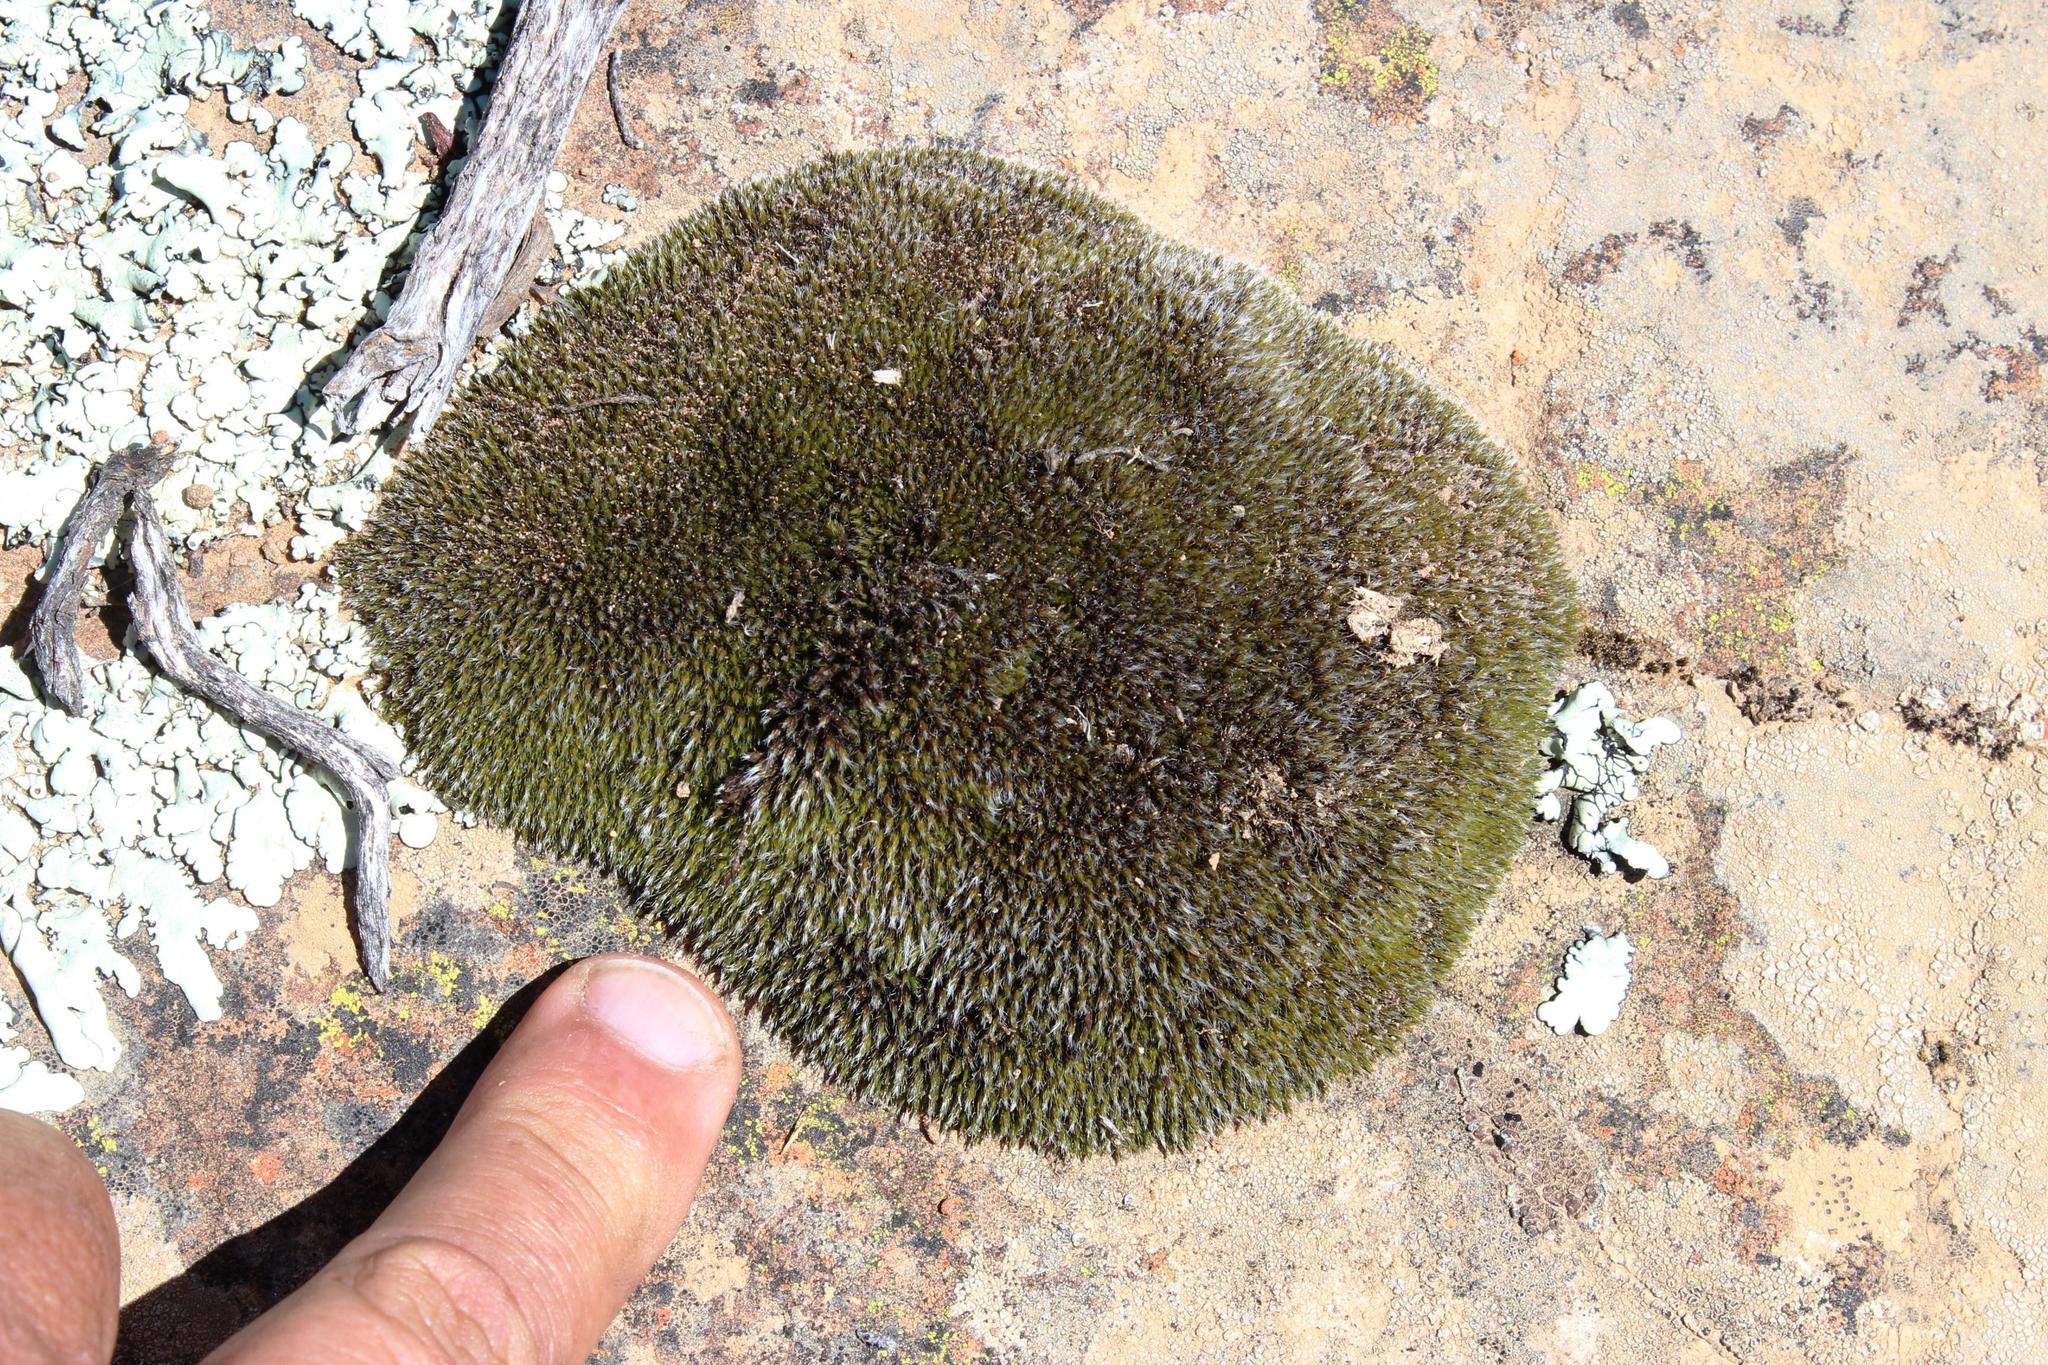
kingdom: Plantae
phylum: Bryophyta
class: Bryopsida
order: Grimmiales
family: Grimmiaceae
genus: Grimmia
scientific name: Grimmia laevigata
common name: Hoary grimmia
